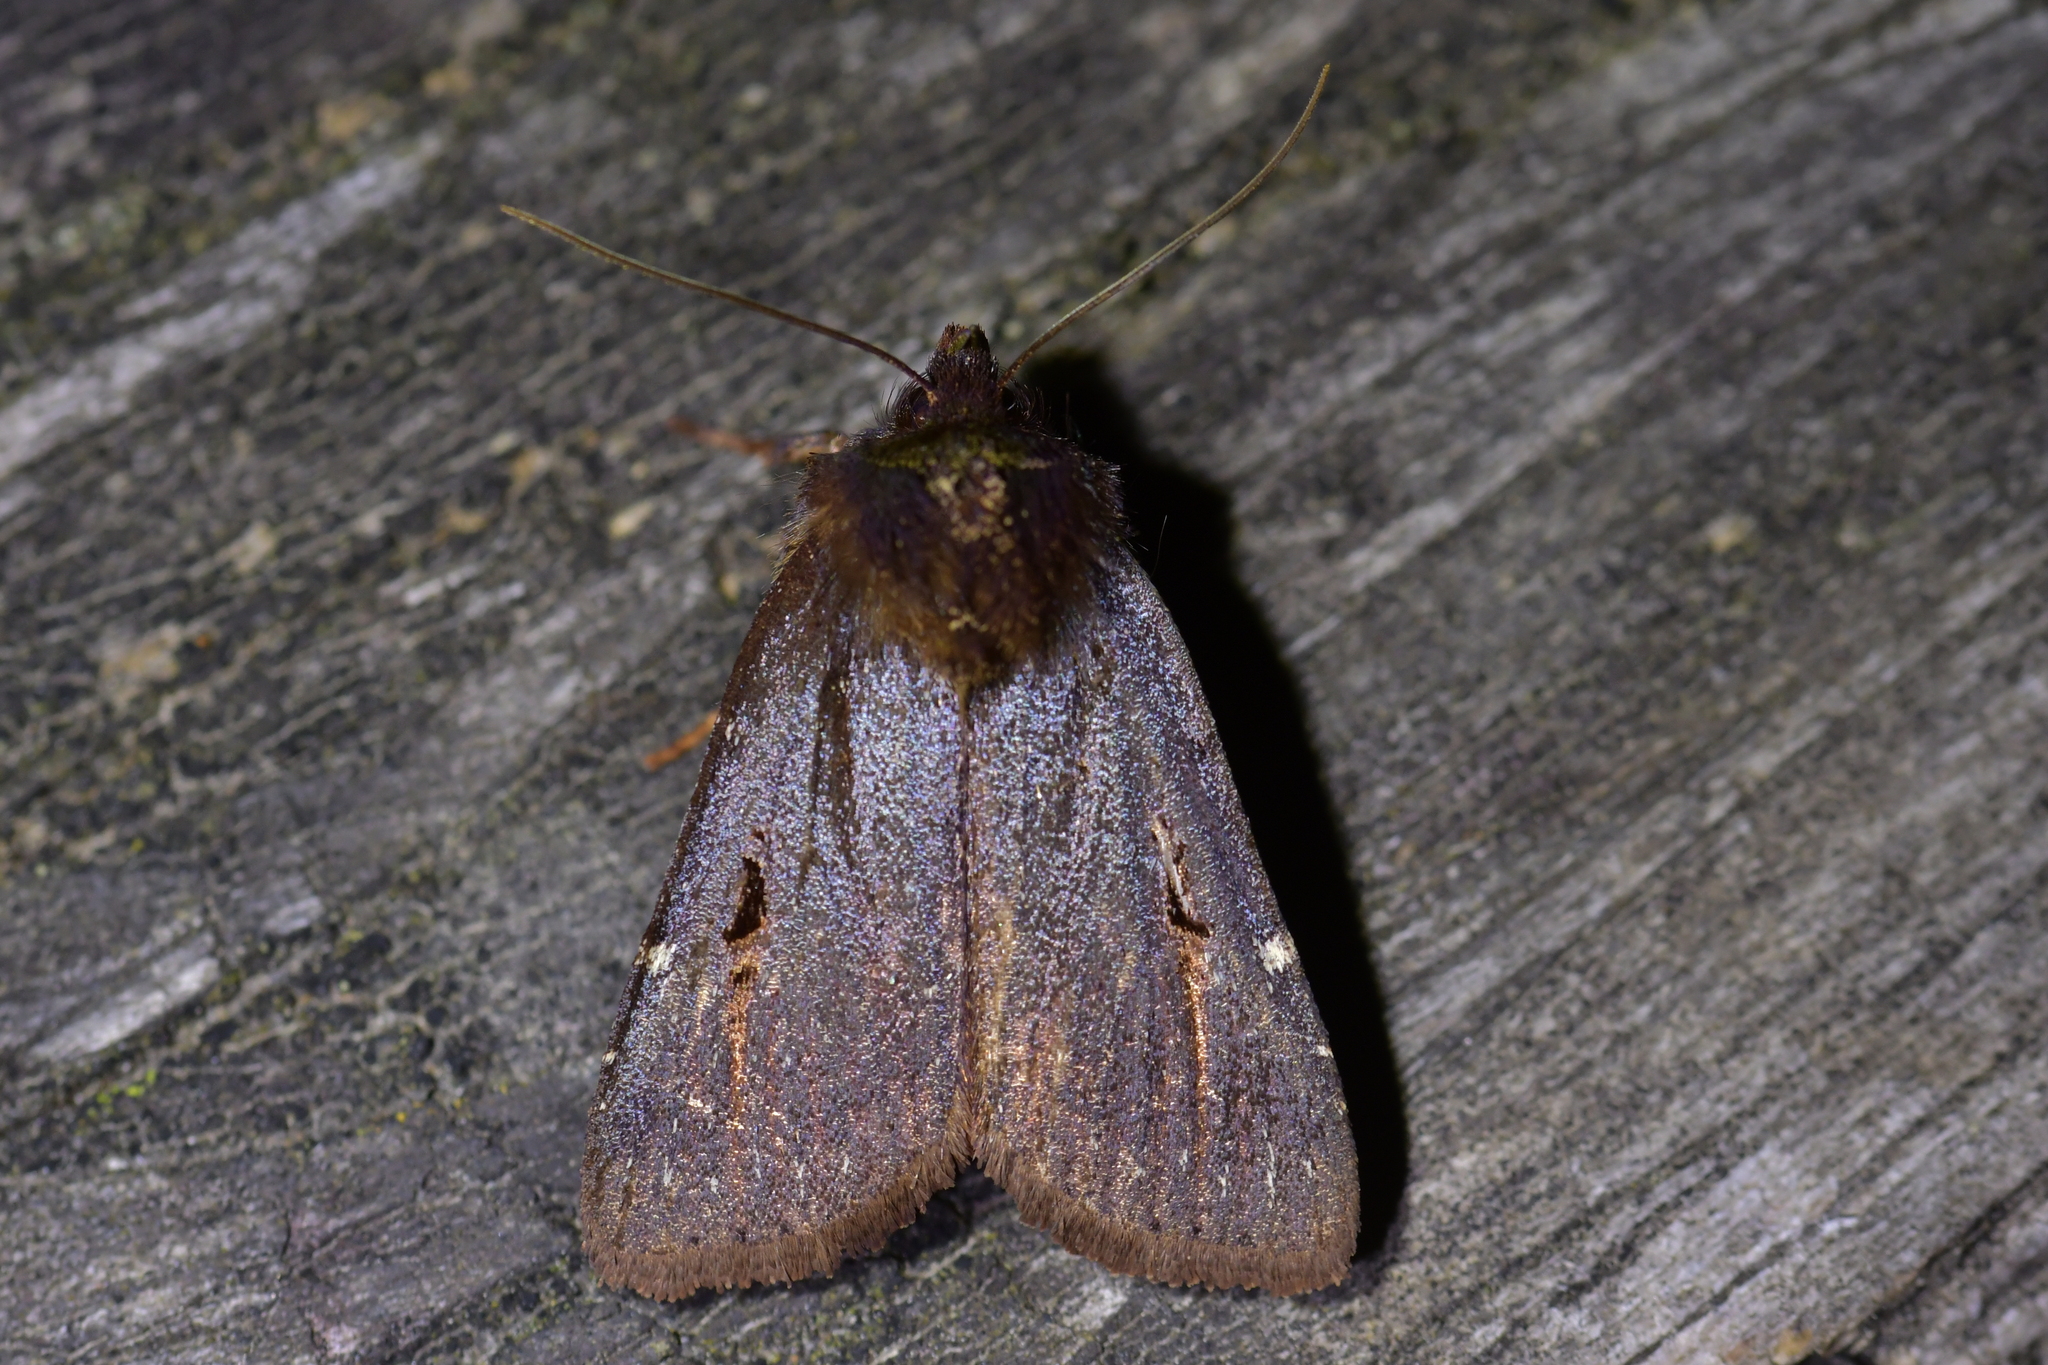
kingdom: Animalia
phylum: Arthropoda
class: Insecta
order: Lepidoptera
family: Noctuidae
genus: Austramathes
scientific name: Austramathes purpurea
